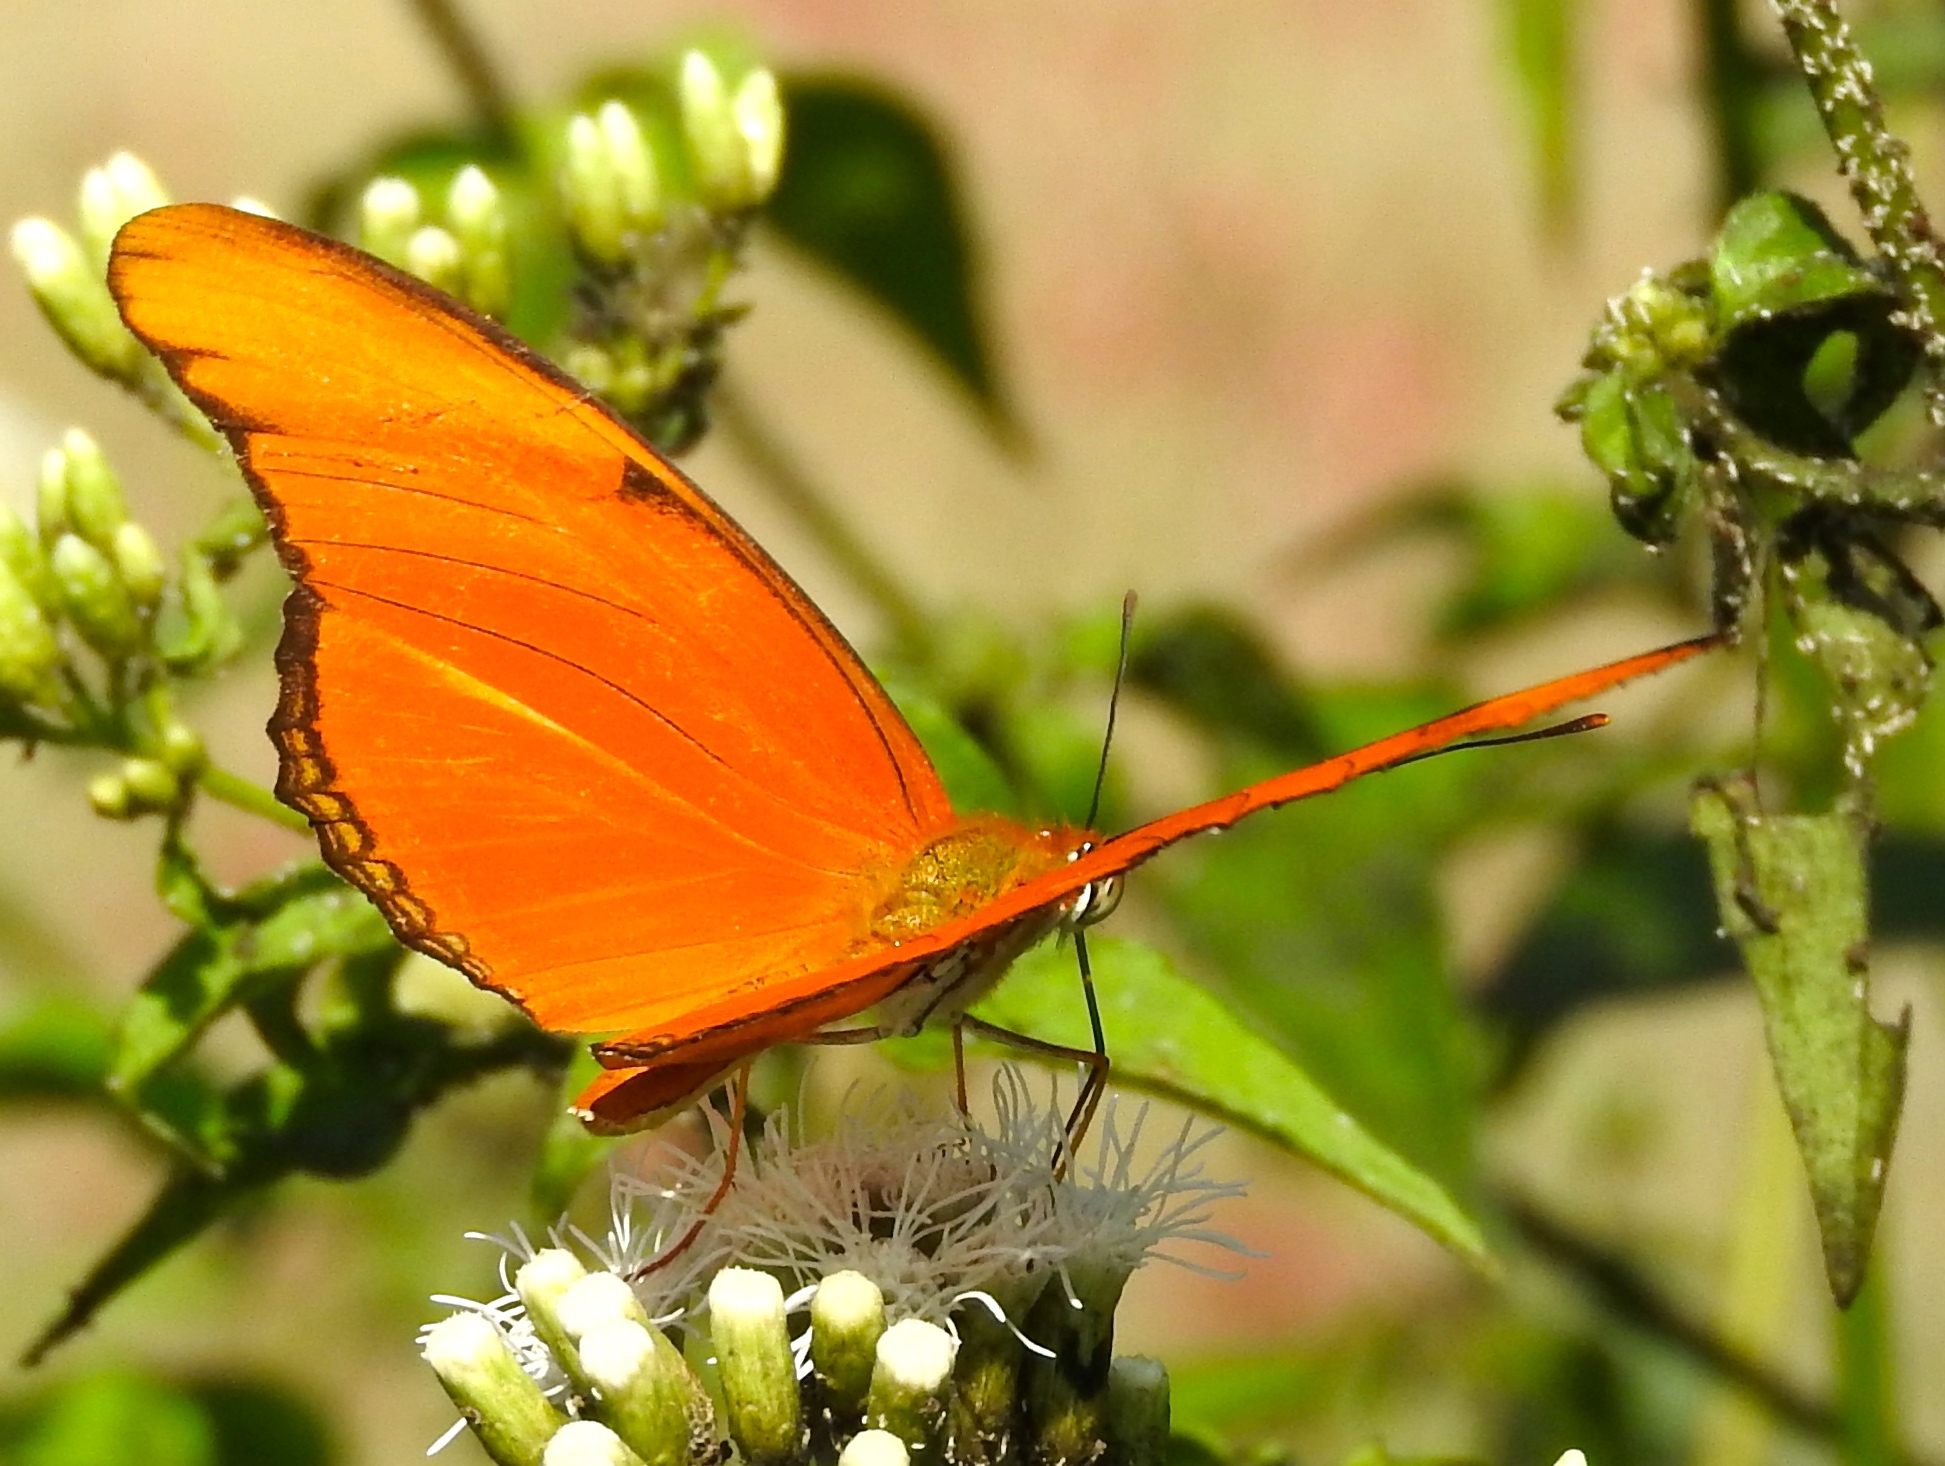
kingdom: Animalia
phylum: Arthropoda
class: Insecta
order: Lepidoptera
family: Nymphalidae
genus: Dryas
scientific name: Dryas iulia
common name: Flambeau
